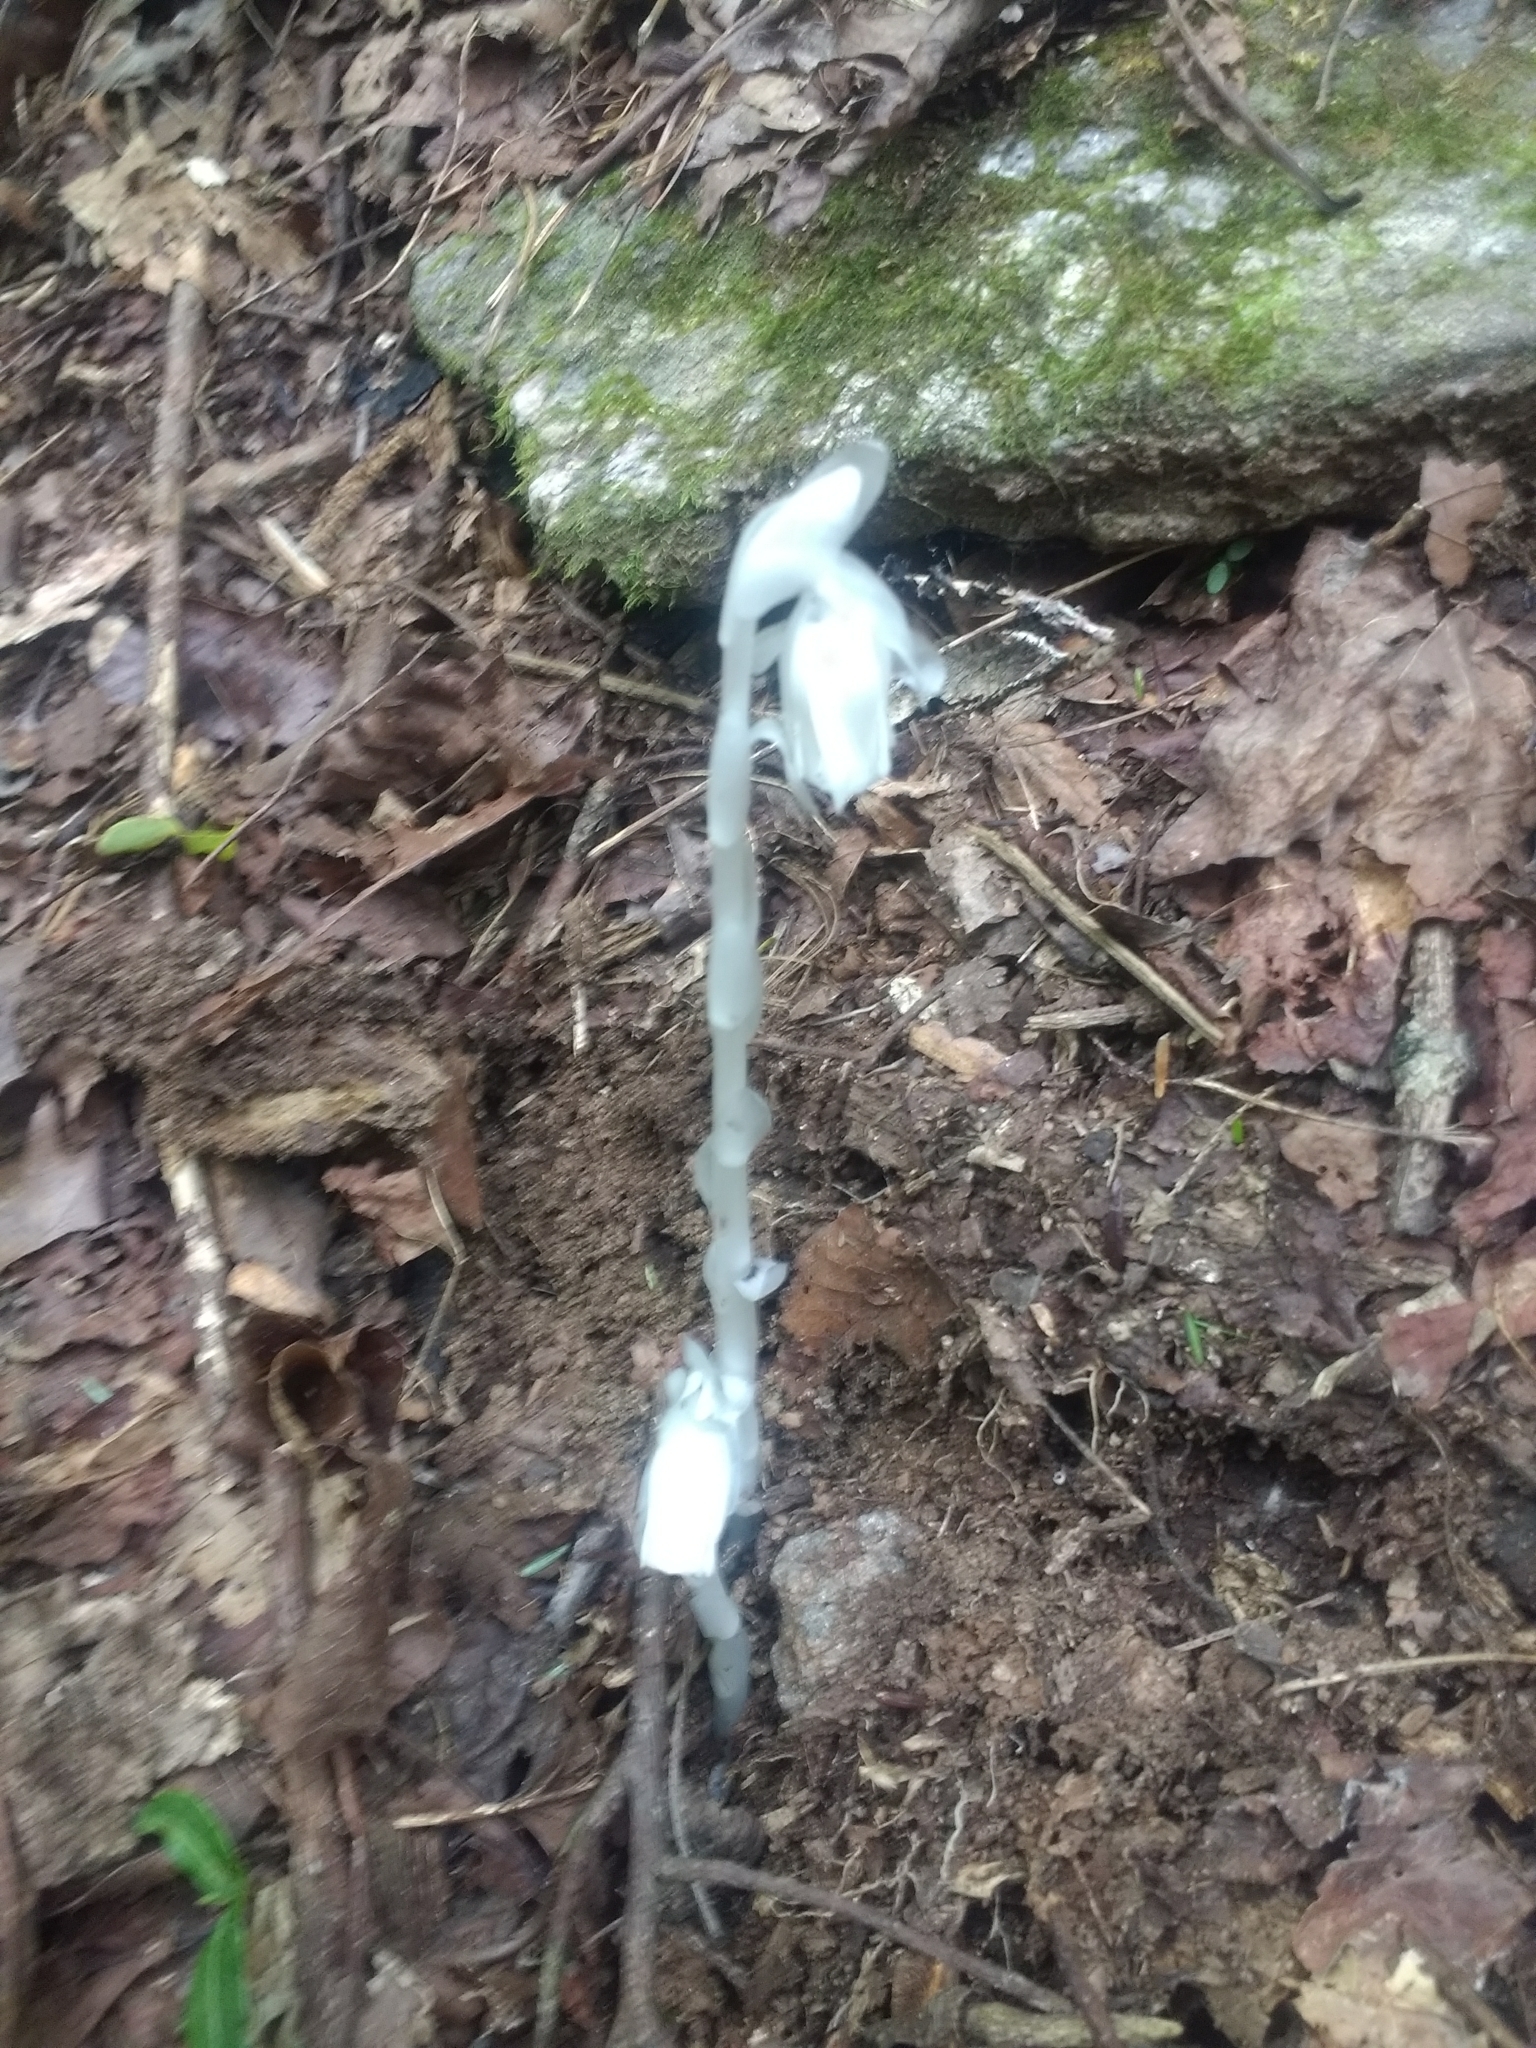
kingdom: Plantae
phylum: Tracheophyta
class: Magnoliopsida
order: Ericales
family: Ericaceae
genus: Monotropa
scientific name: Monotropa uniflora
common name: Convulsion root
